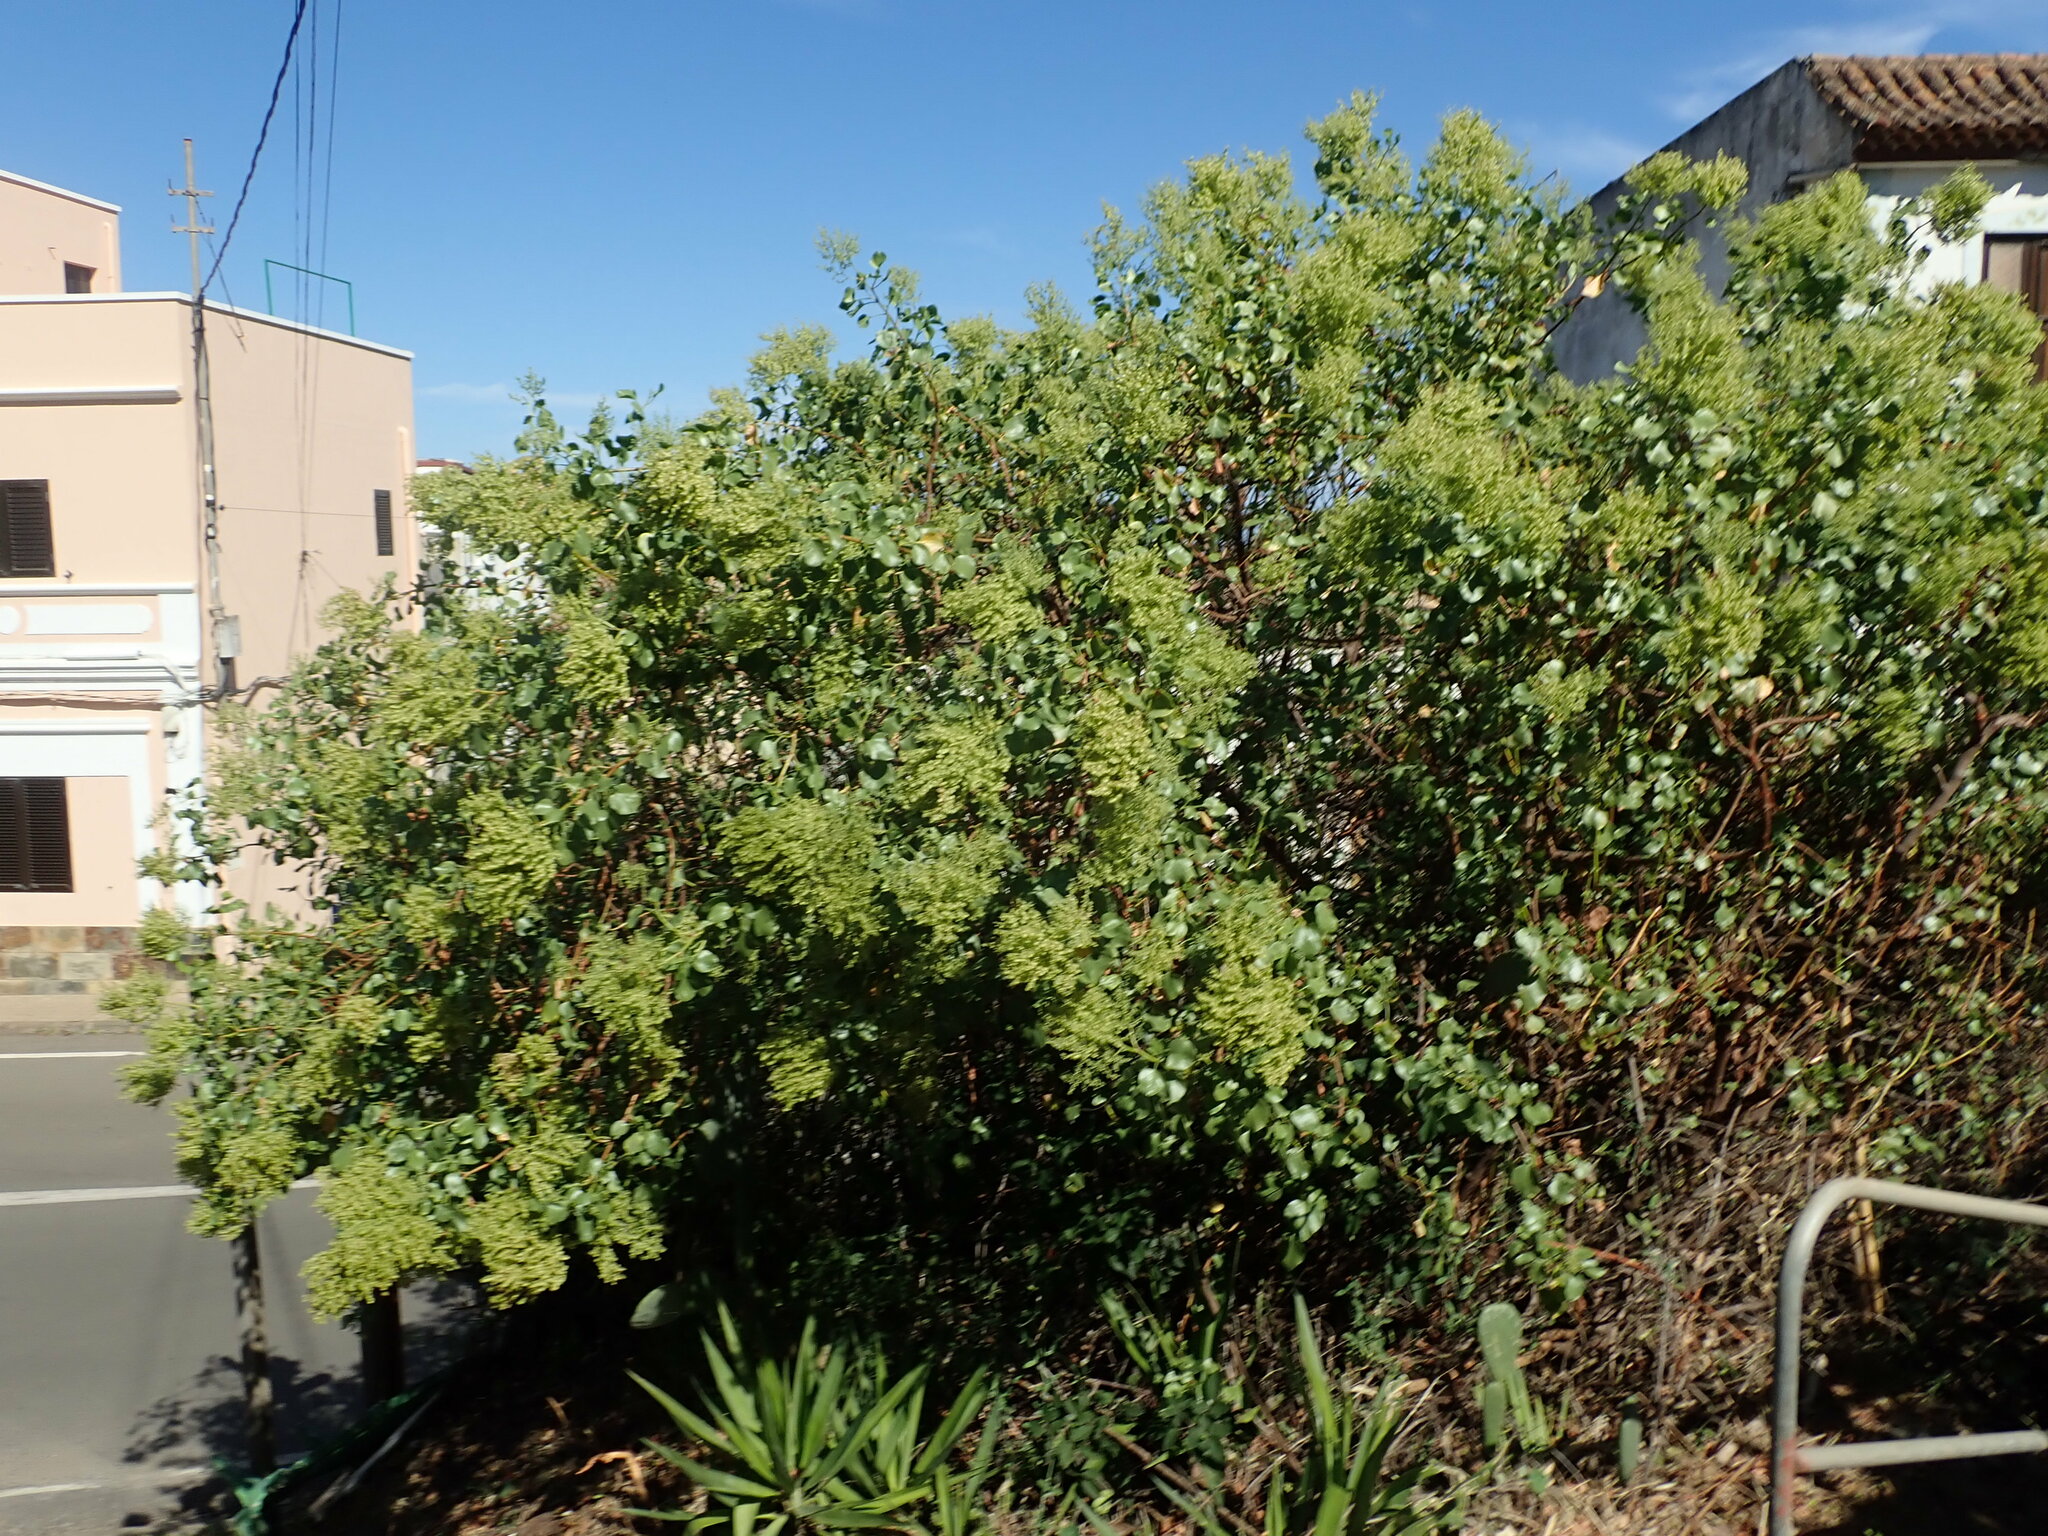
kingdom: Plantae
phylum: Tracheophyta
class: Magnoliopsida
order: Caryophyllales
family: Polygonaceae
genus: Rumex
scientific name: Rumex lunaria
